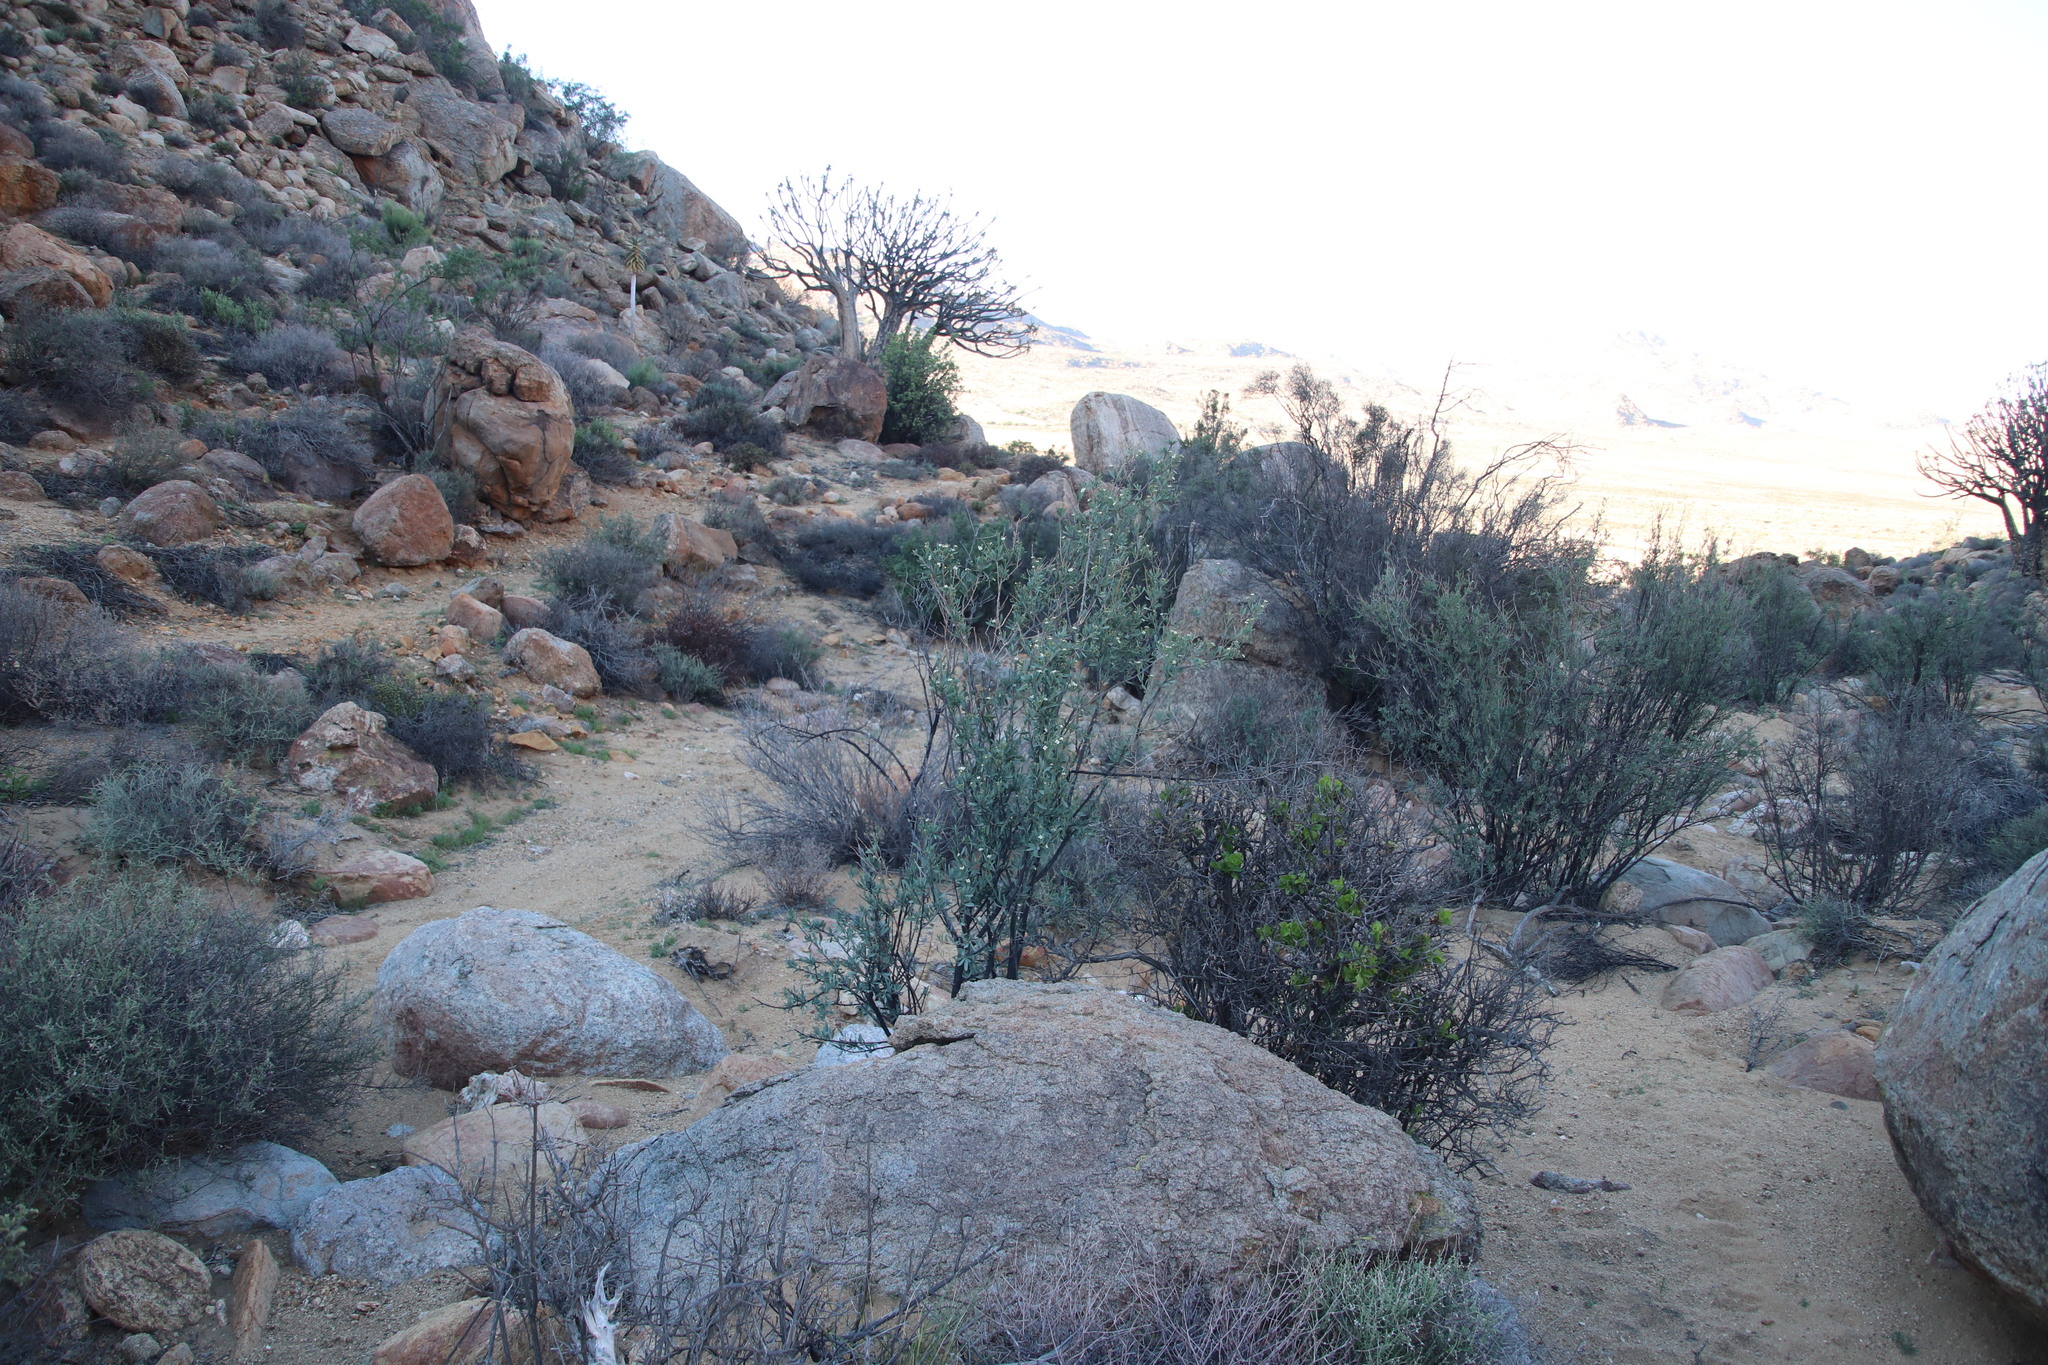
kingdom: Plantae
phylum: Tracheophyta
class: Magnoliopsida
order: Solanales
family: Montiniaceae
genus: Montinia
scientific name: Montinia caryophyllacea
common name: Wild clove-bush
